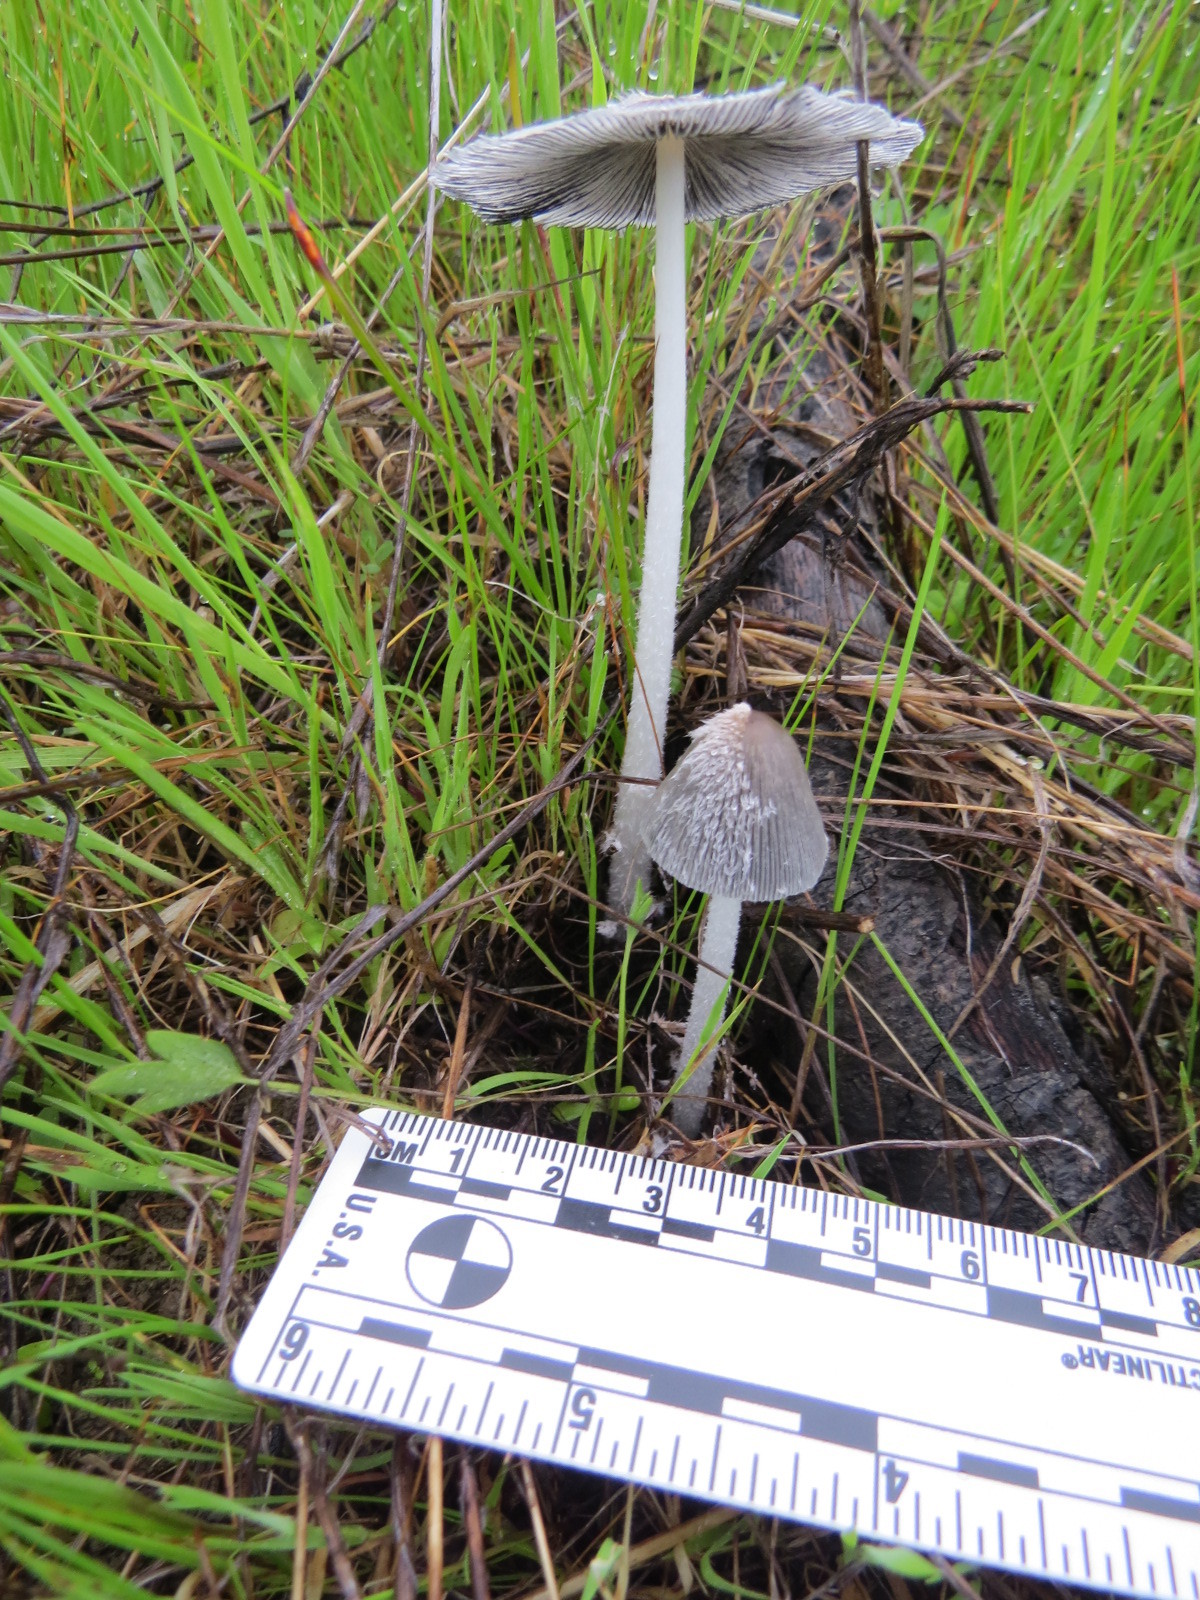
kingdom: Fungi
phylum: Basidiomycota
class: Agaricomycetes
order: Agaricales
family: Psathyrellaceae
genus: Coprinopsis
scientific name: Coprinopsis lagopus
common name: Hare'sfoot inkcap
